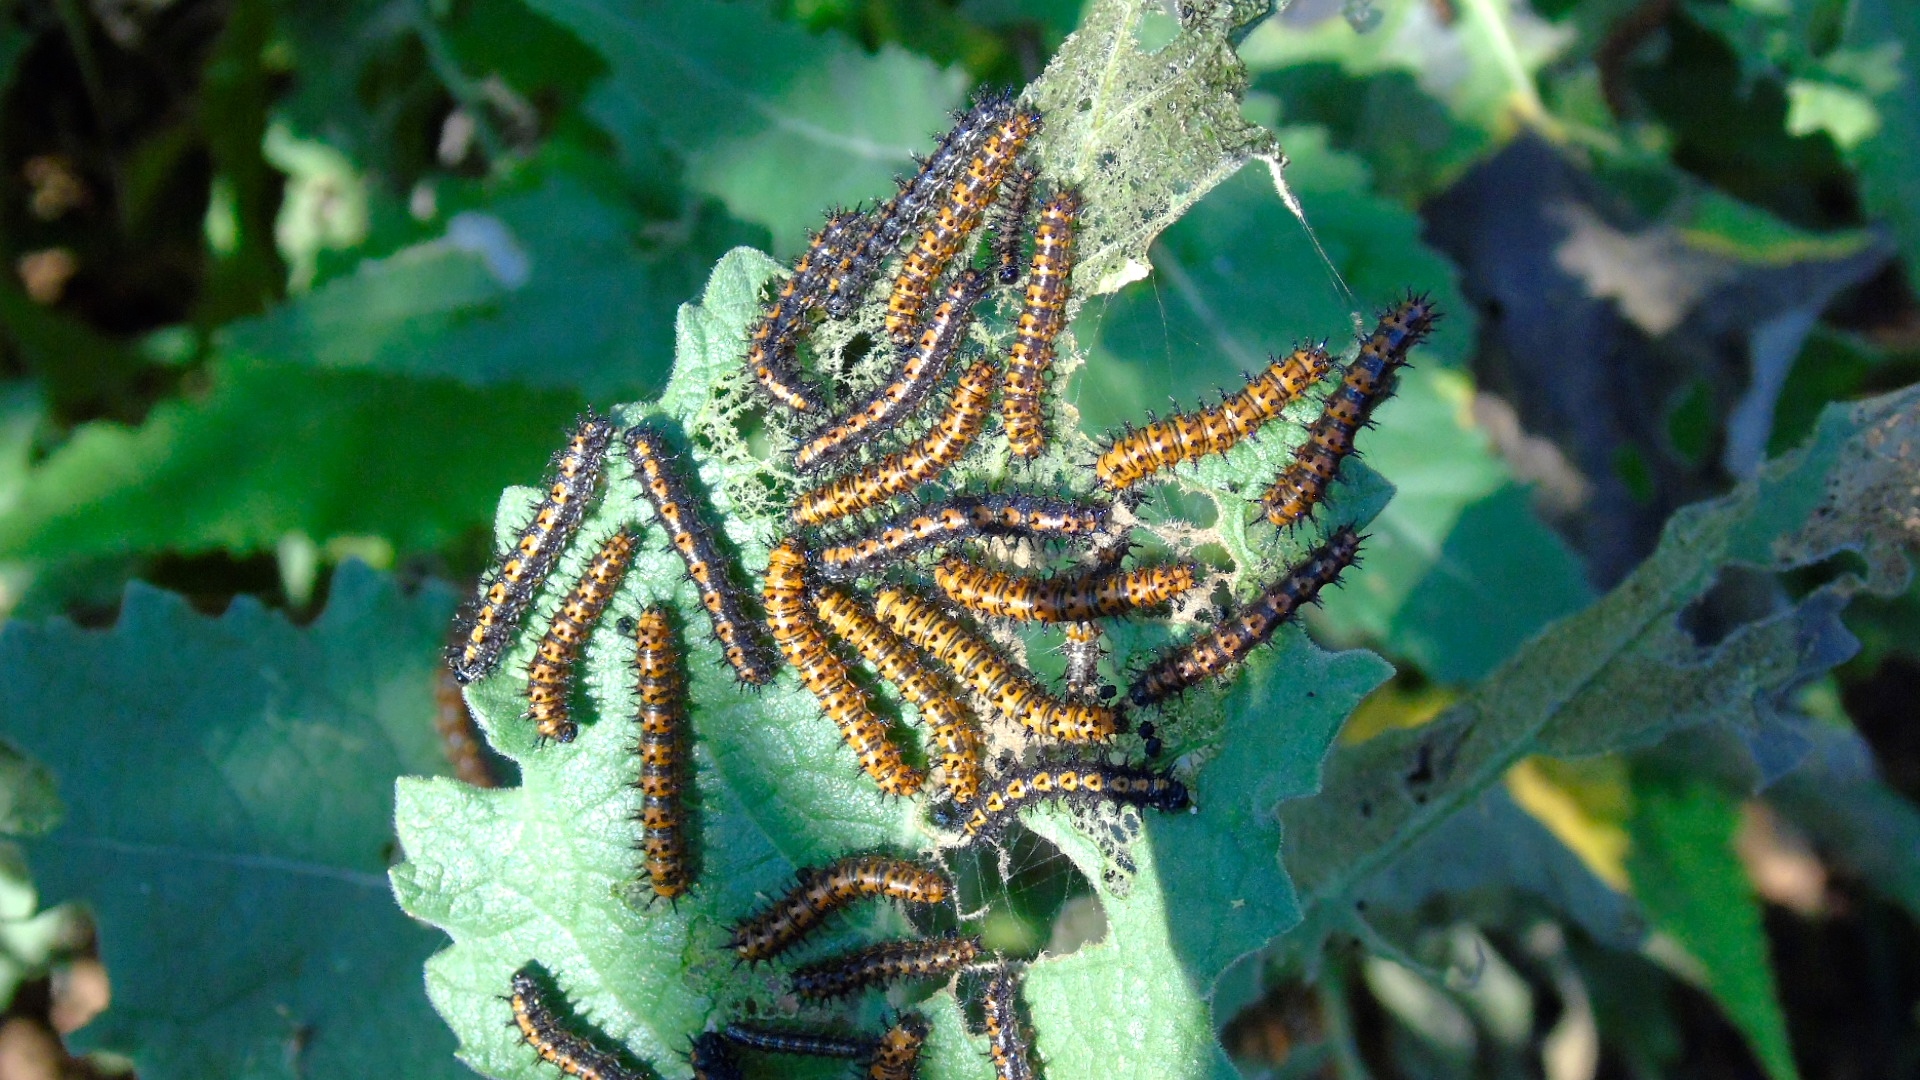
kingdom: Animalia
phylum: Arthropoda
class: Insecta
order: Lepidoptera
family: Nymphalidae
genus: Chlosyne
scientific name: Chlosyne lacinia
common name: Bordered patch
